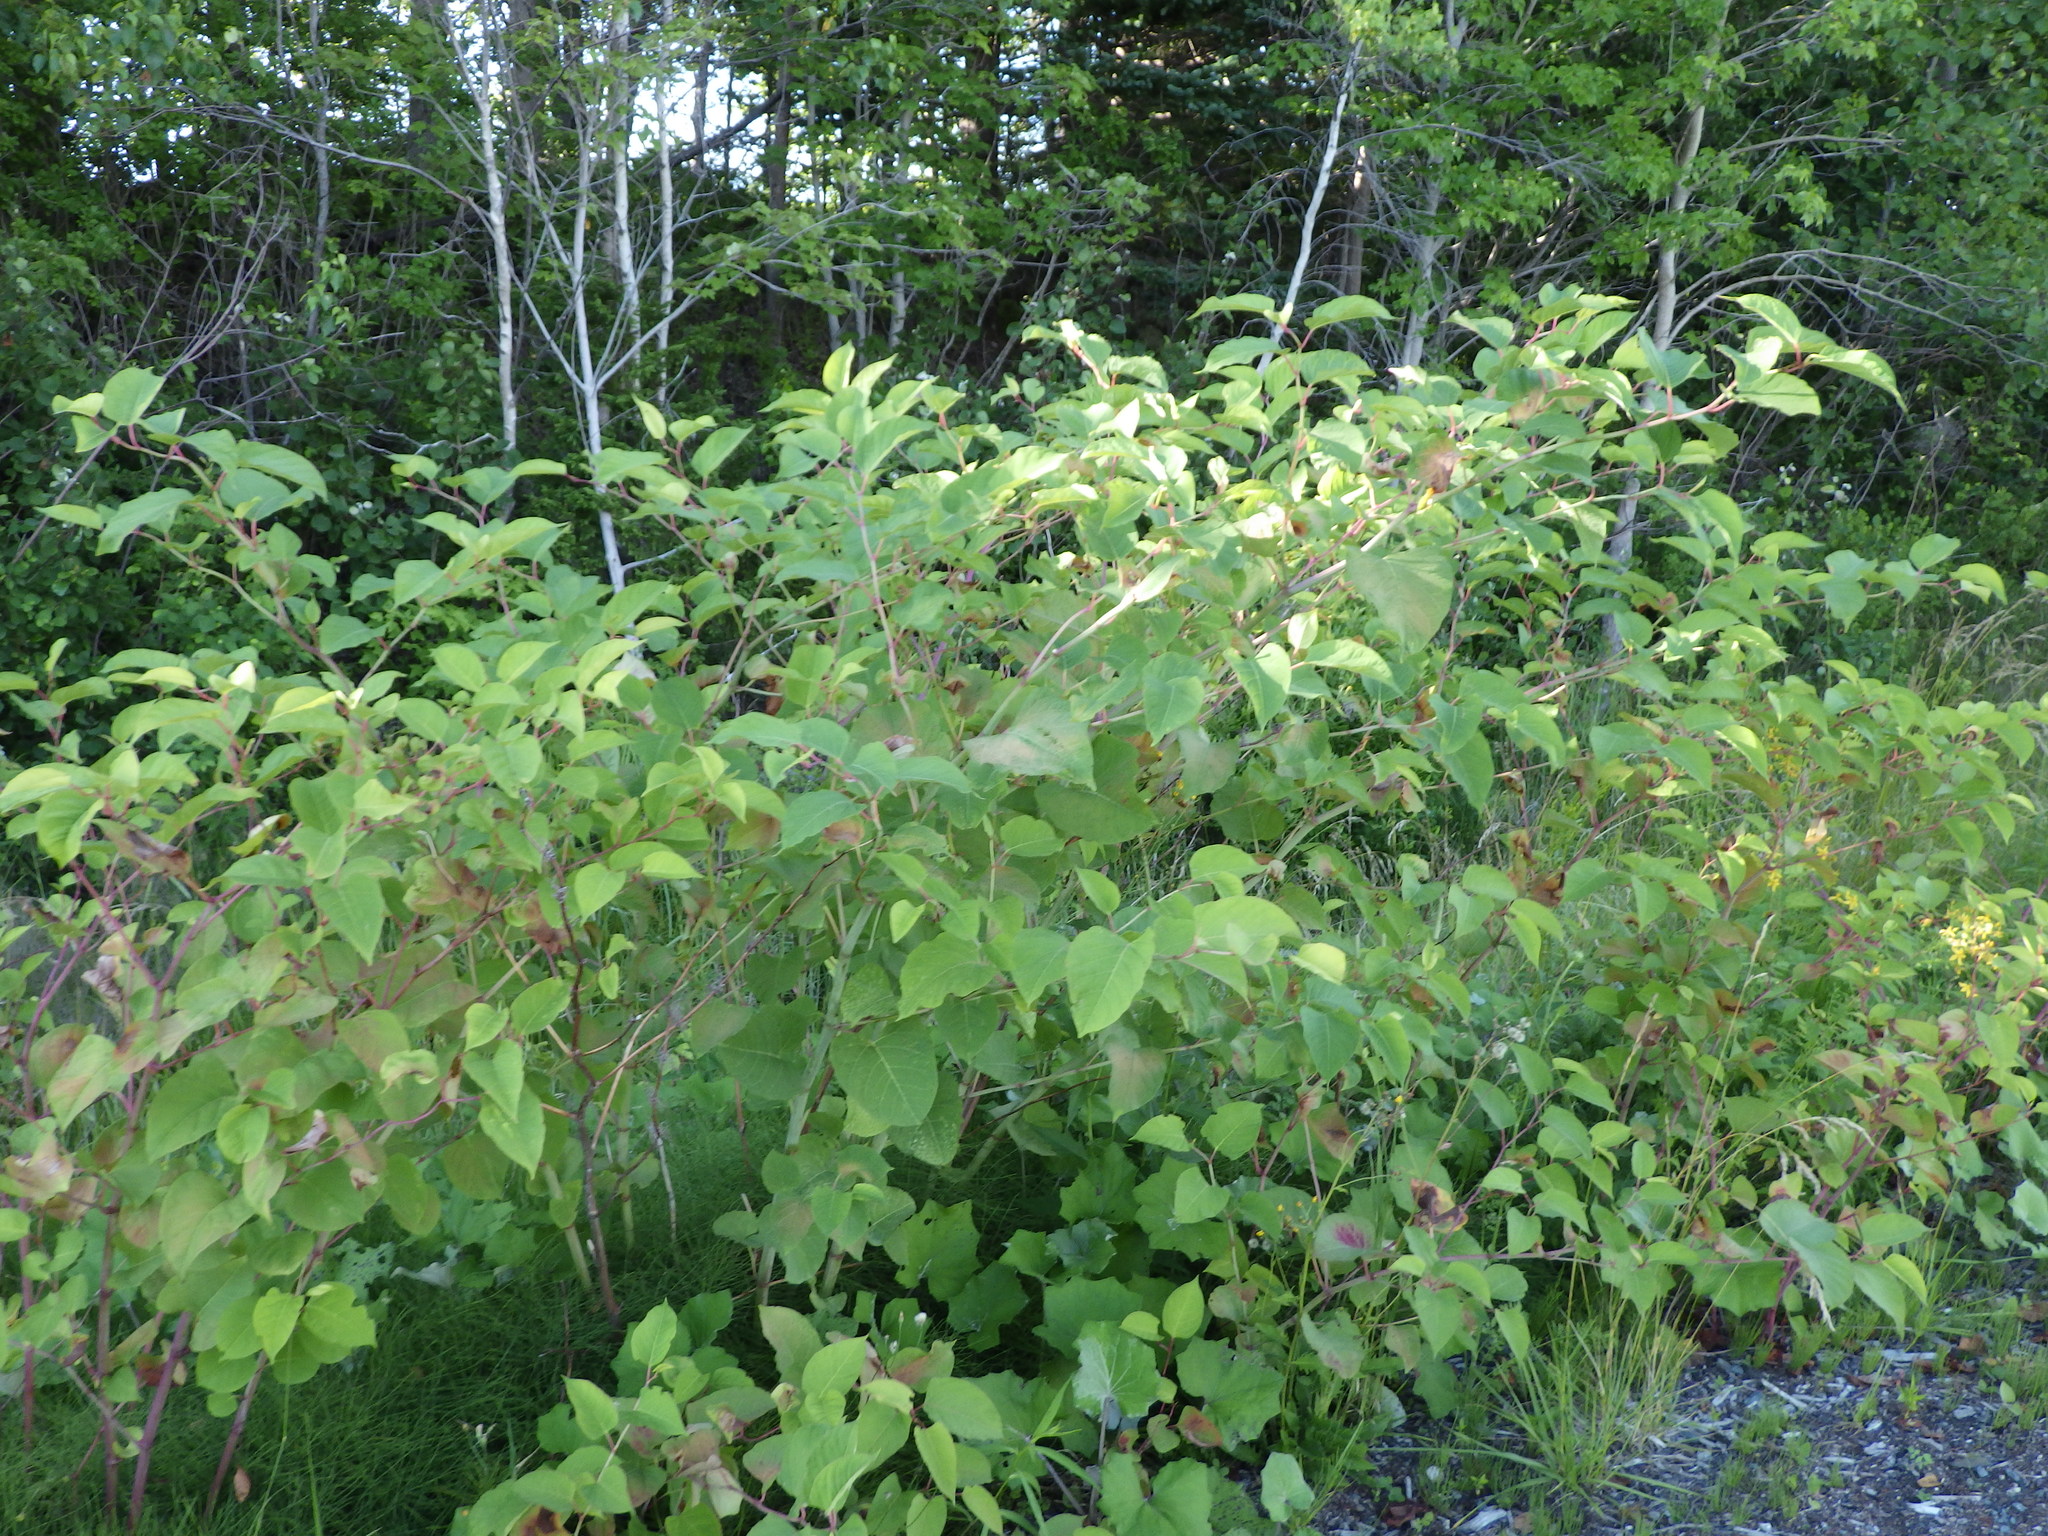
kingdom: Plantae
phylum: Tracheophyta
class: Magnoliopsida
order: Caryophyllales
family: Polygonaceae
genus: Reynoutria
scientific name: Reynoutria japonica
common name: Japanese knotweed
